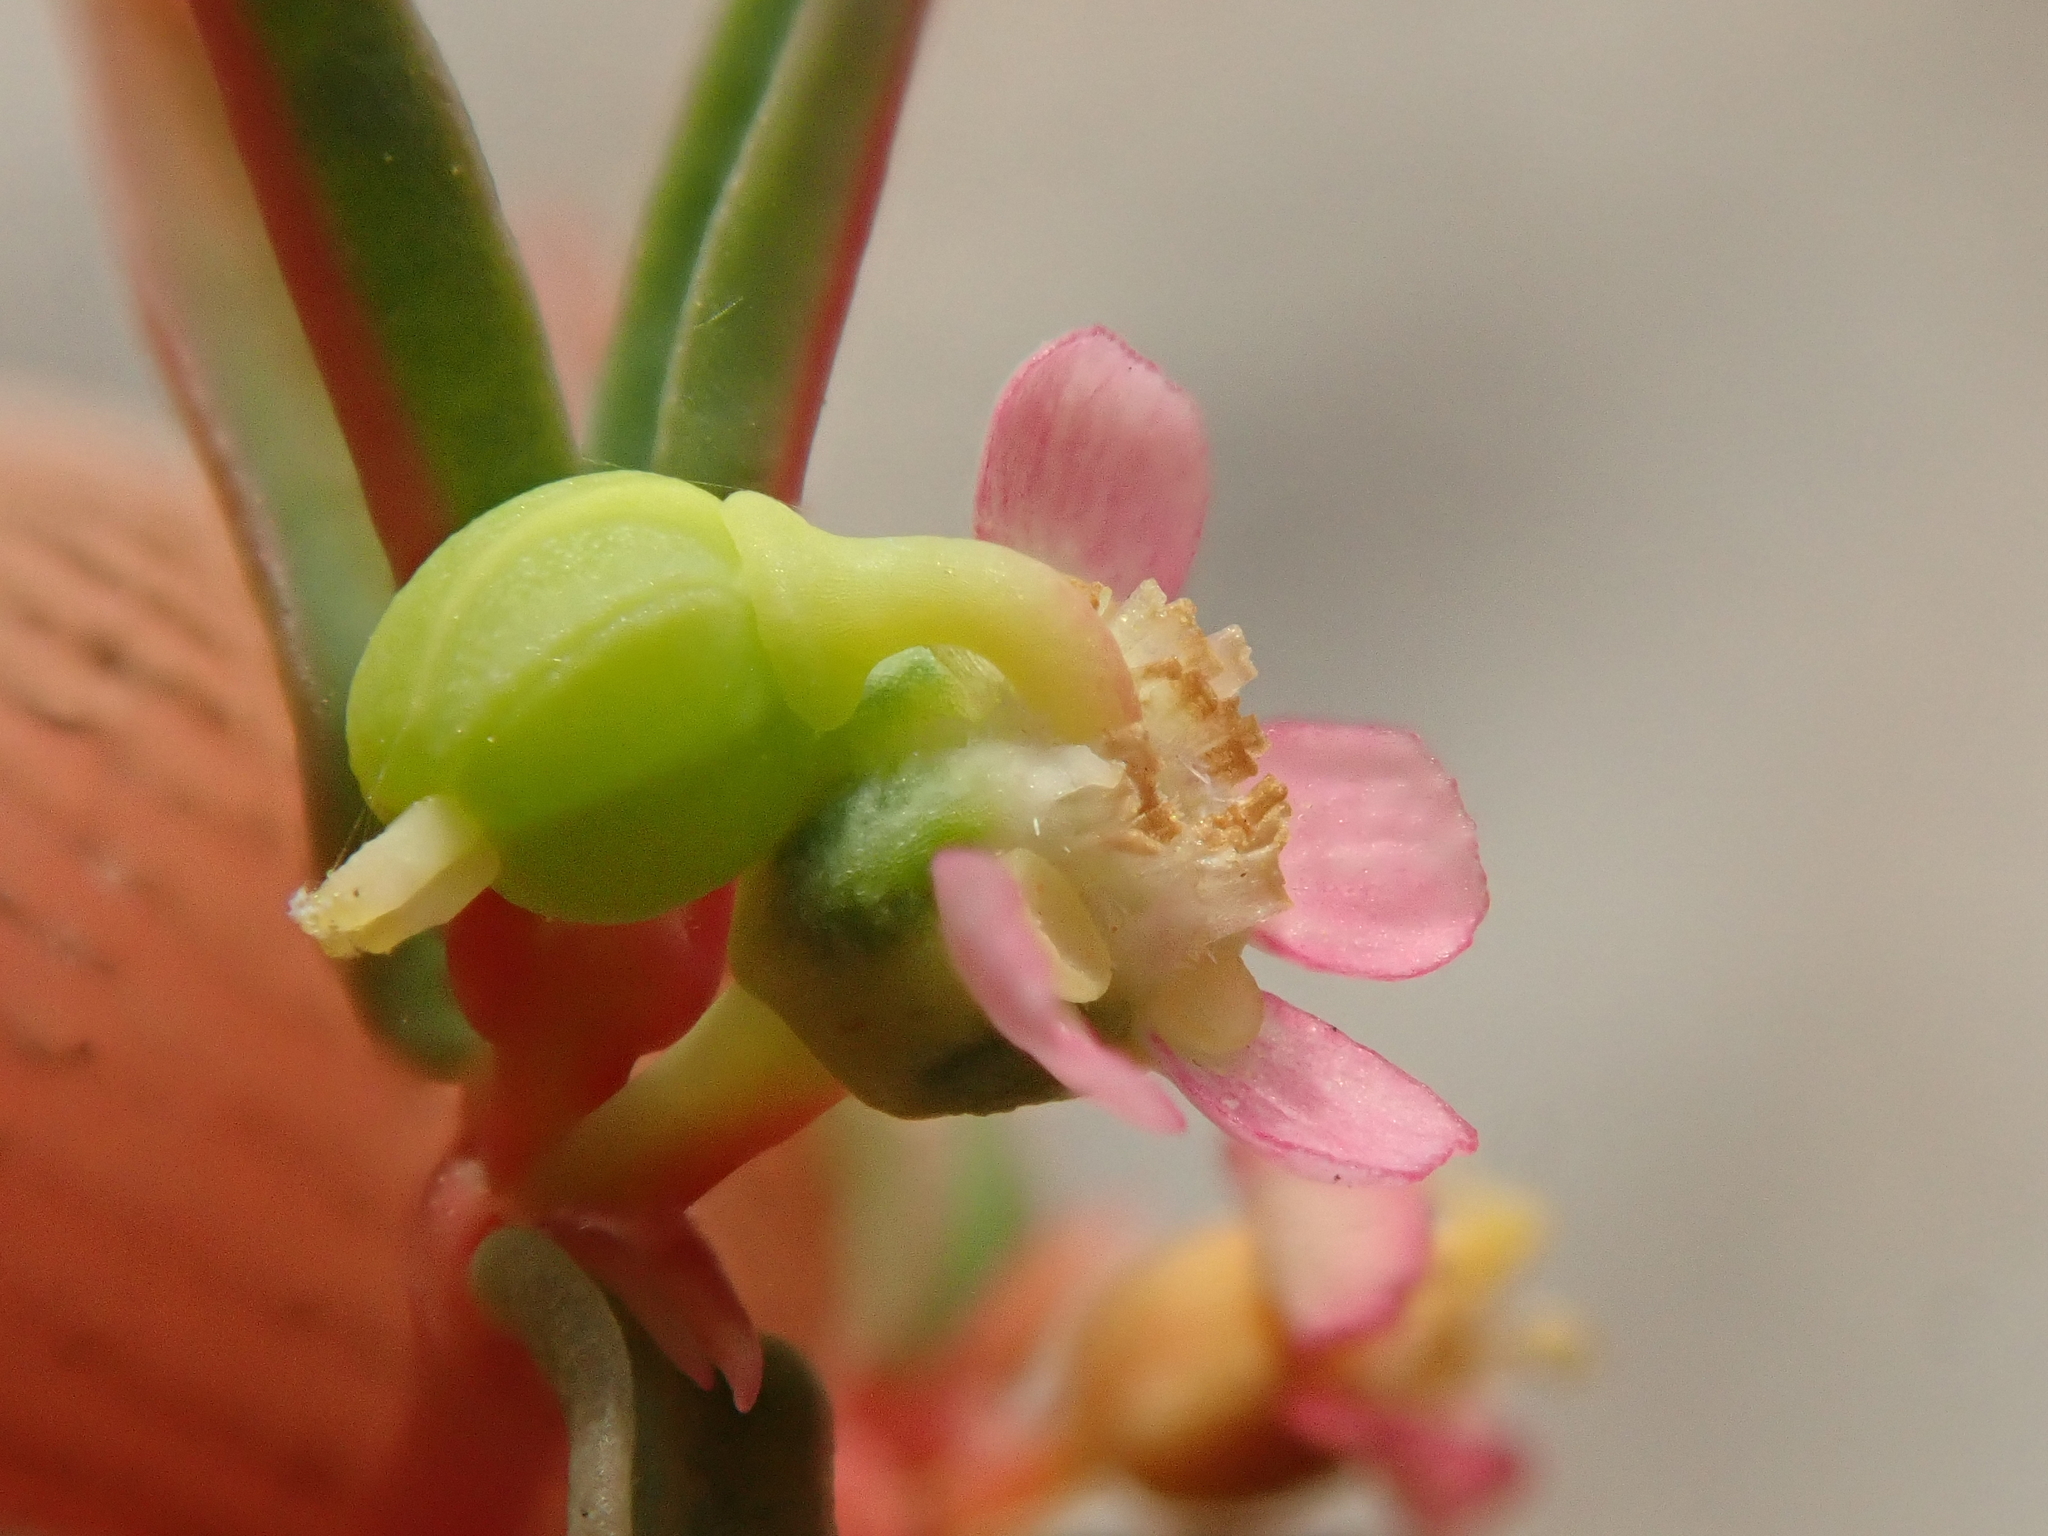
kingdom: Plantae
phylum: Tracheophyta
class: Magnoliopsida
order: Malpighiales
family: Euphorbiaceae
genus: Euphorbia
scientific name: Euphorbia potentilloides
